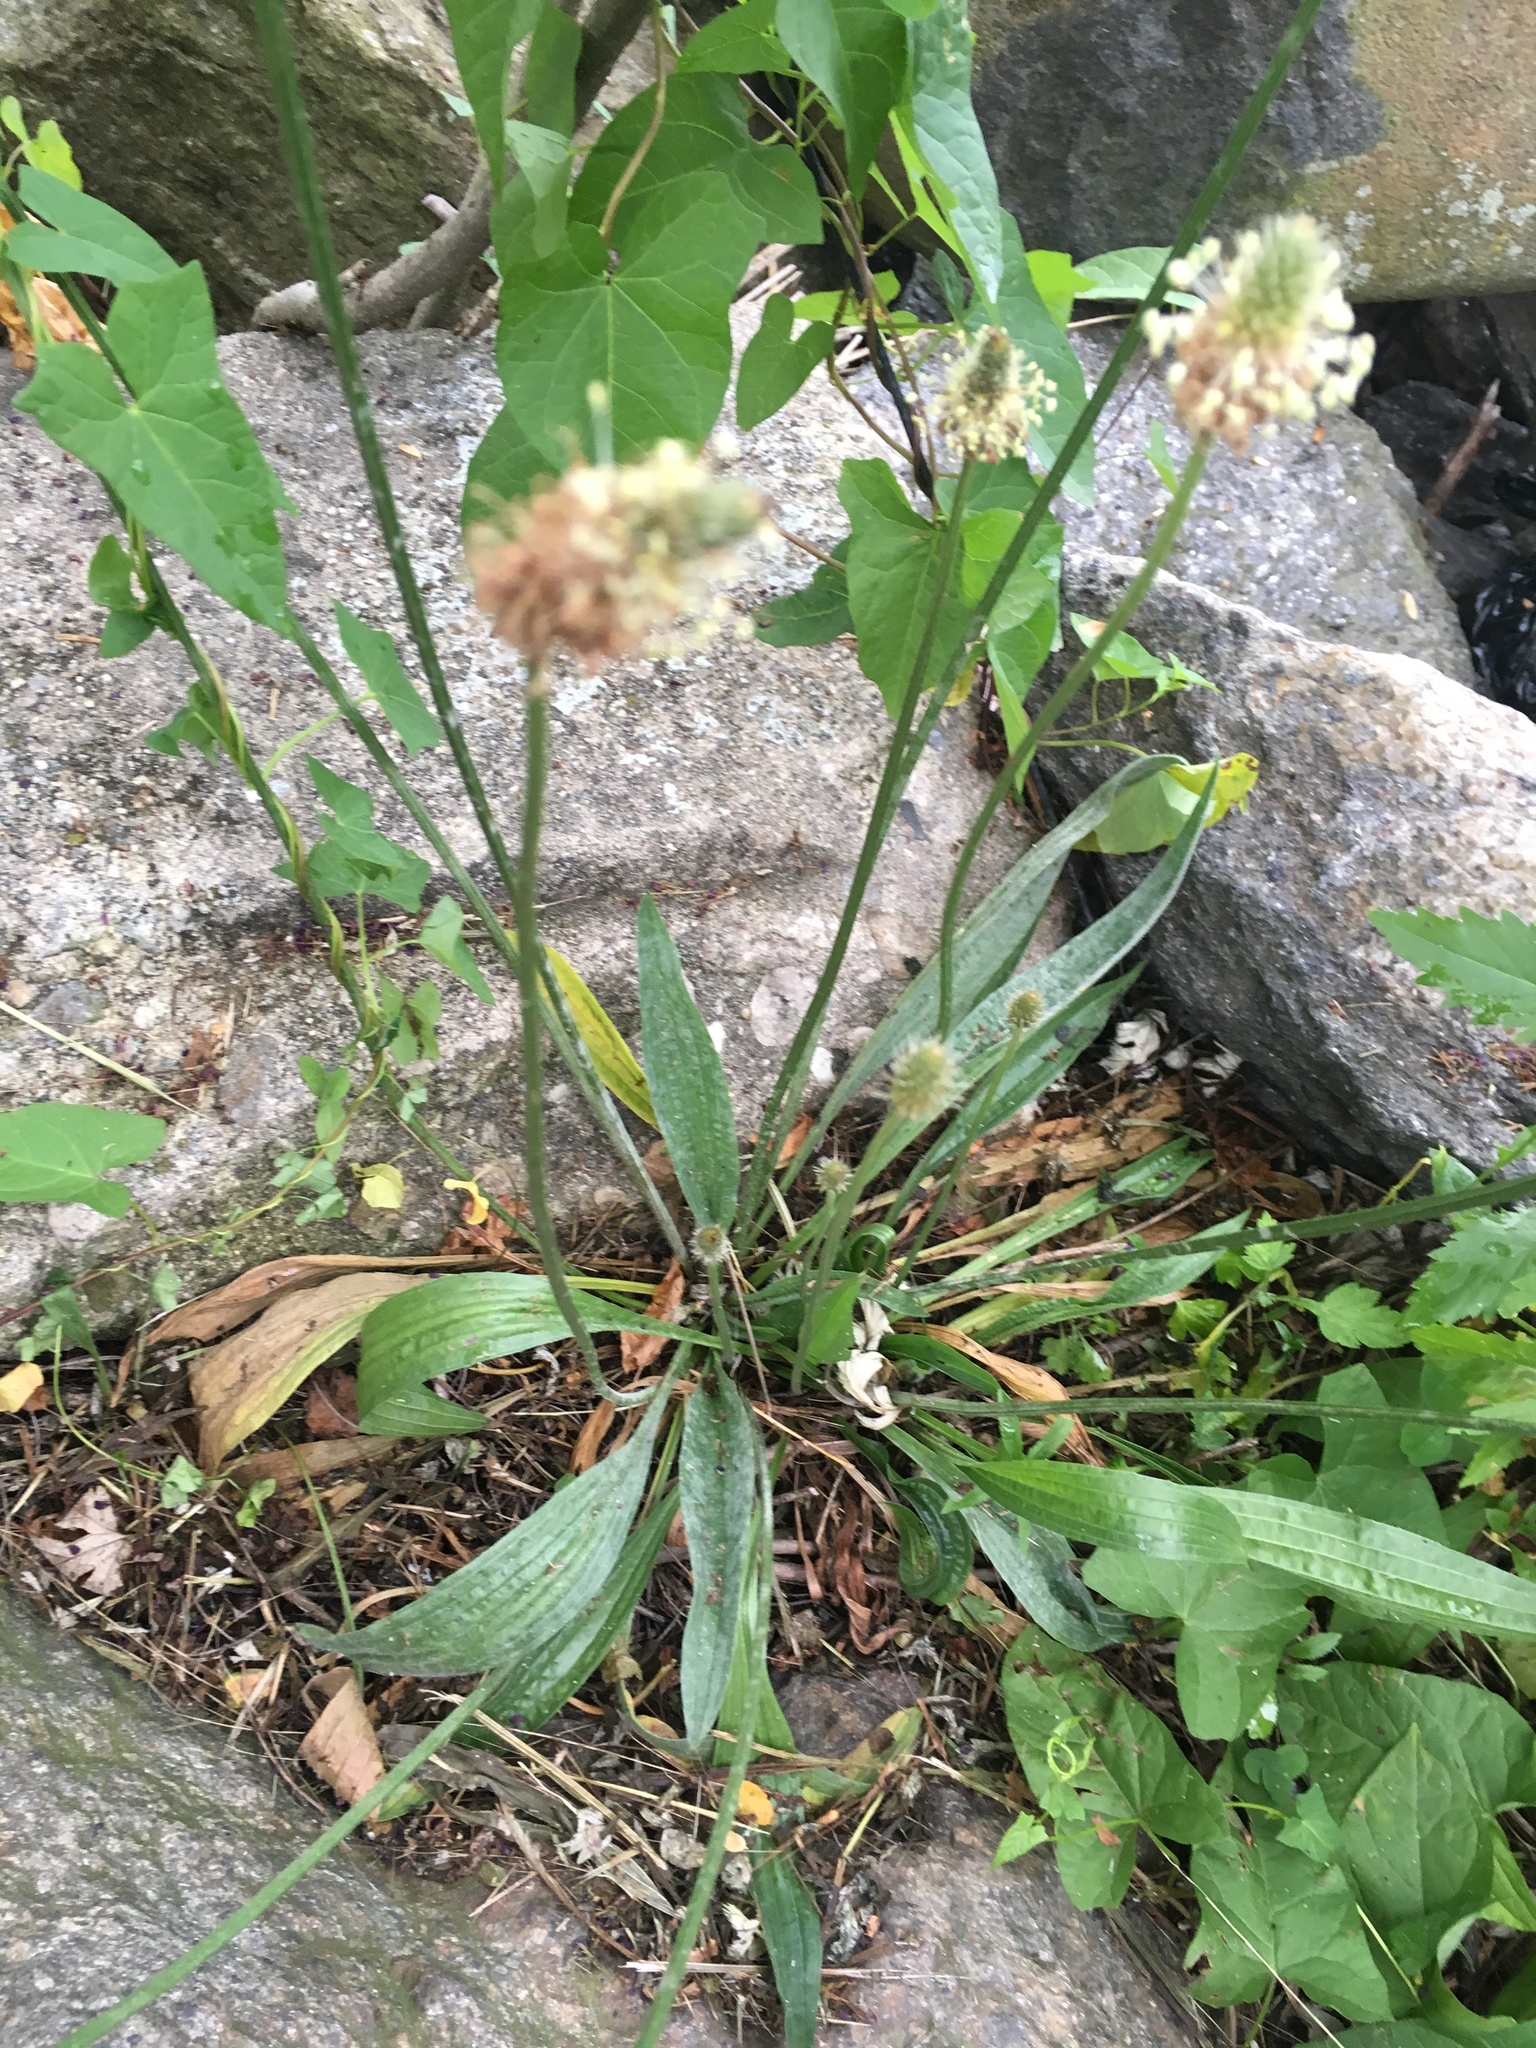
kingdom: Plantae
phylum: Tracheophyta
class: Magnoliopsida
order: Lamiales
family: Plantaginaceae
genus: Plantago
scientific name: Plantago lanceolata
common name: Ribwort plantain
